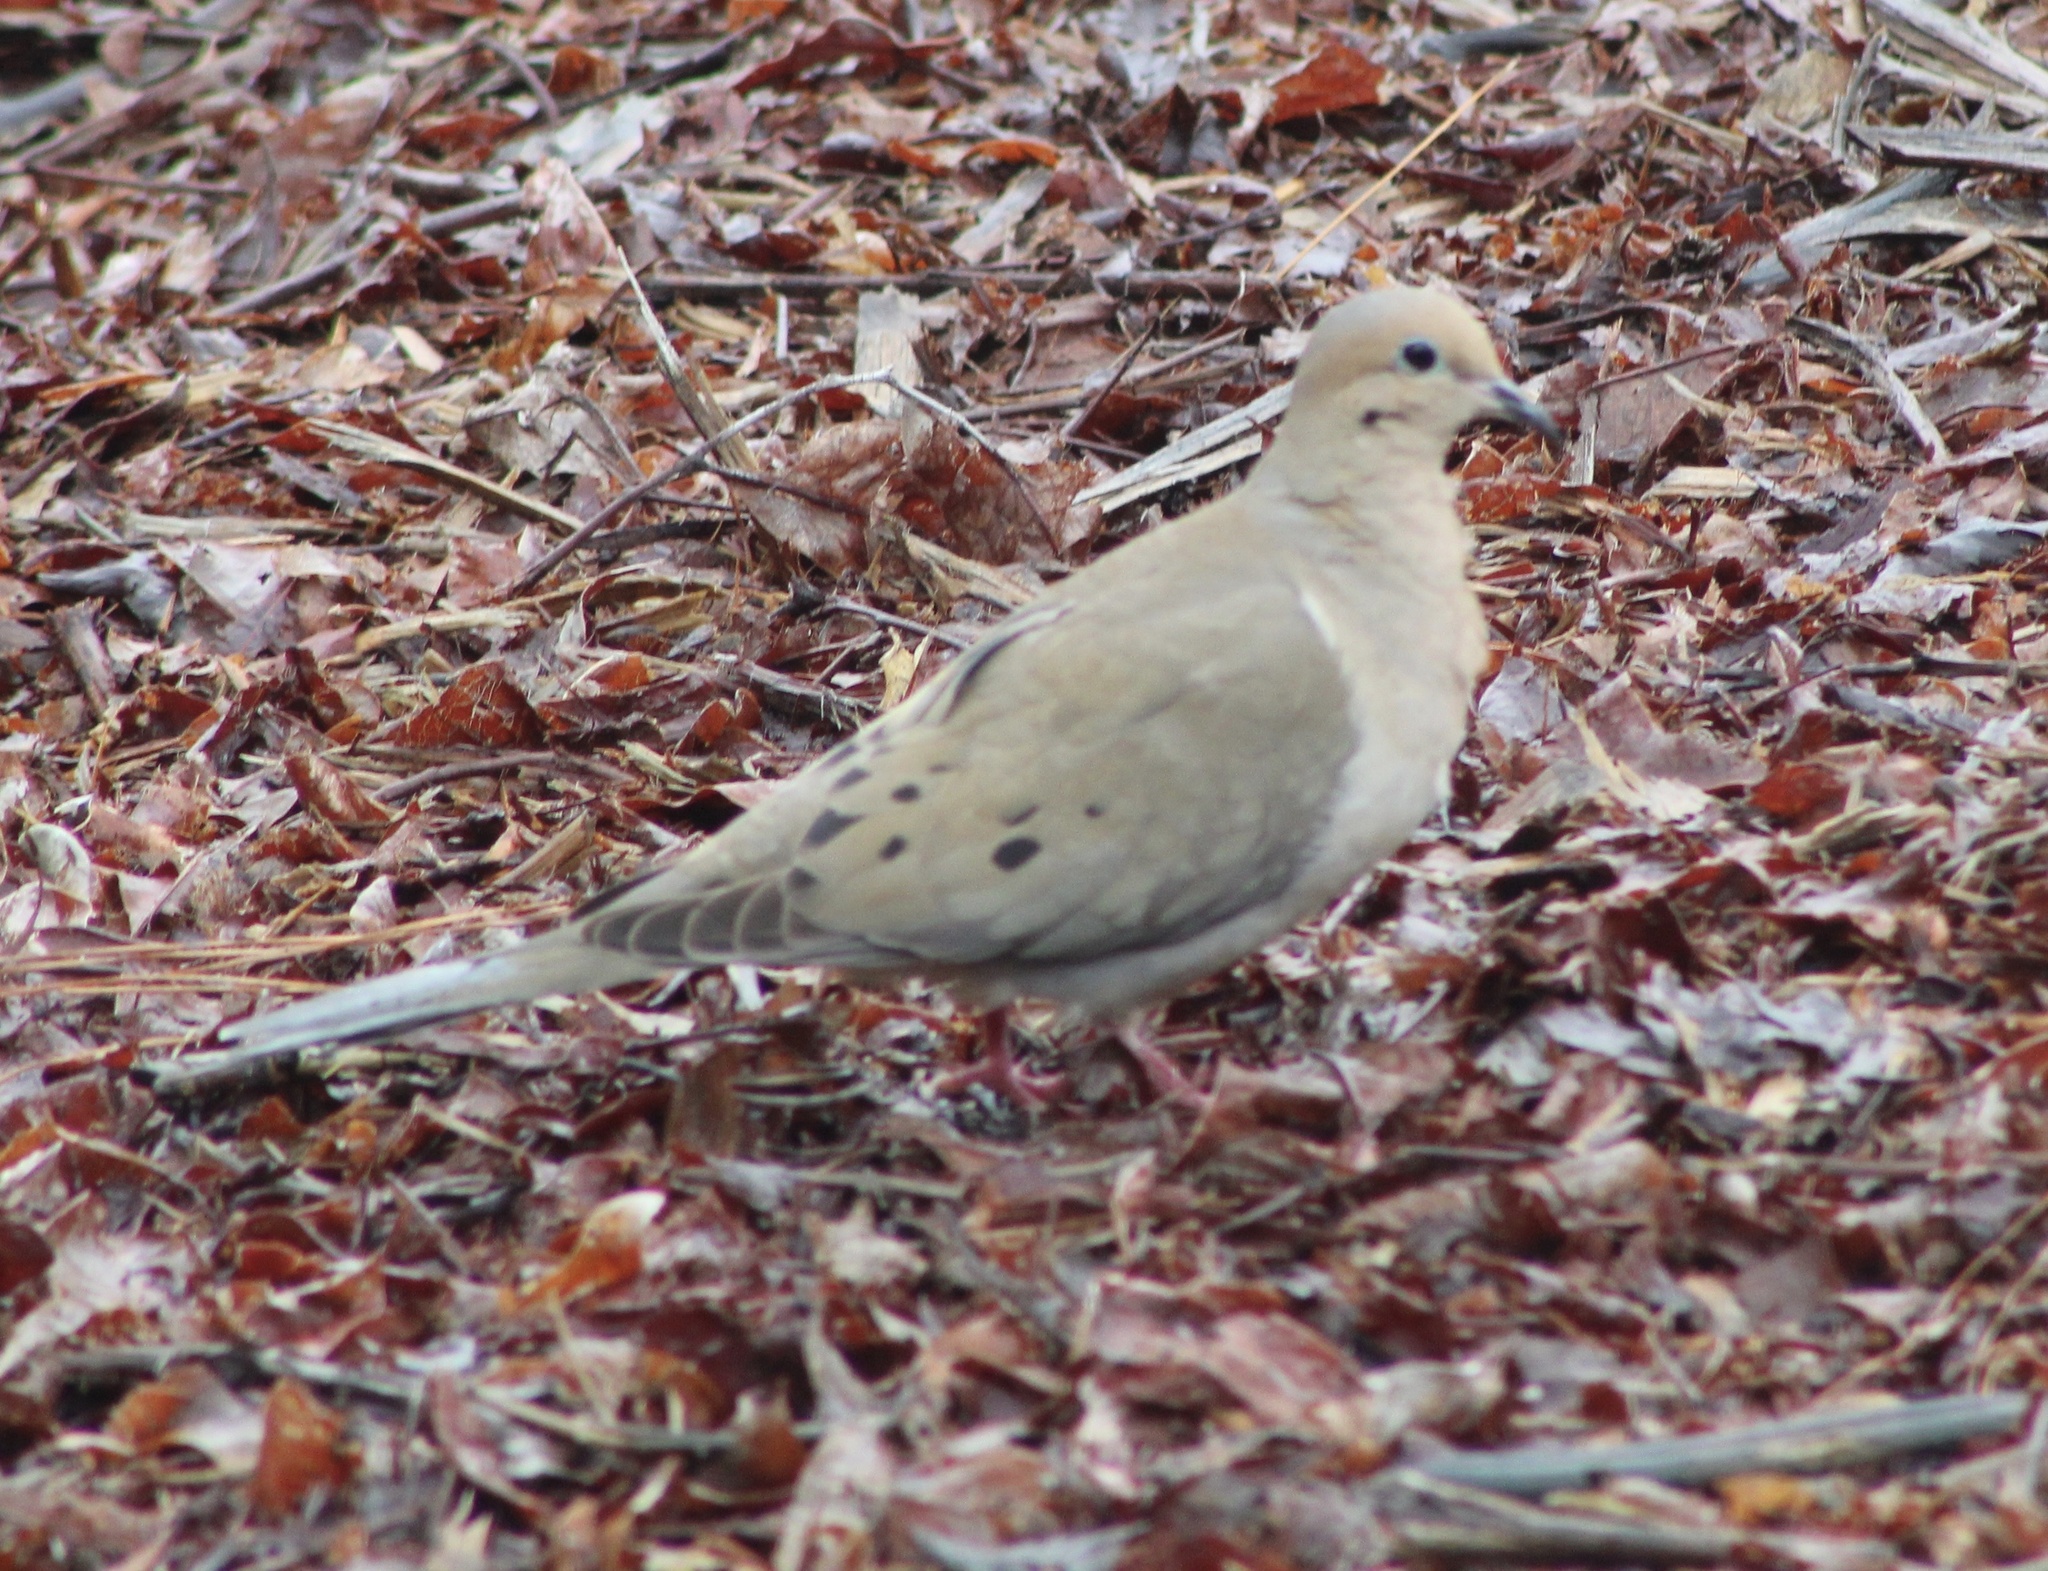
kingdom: Animalia
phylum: Chordata
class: Aves
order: Columbiformes
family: Columbidae
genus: Zenaida
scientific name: Zenaida macroura
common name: Mourning dove
